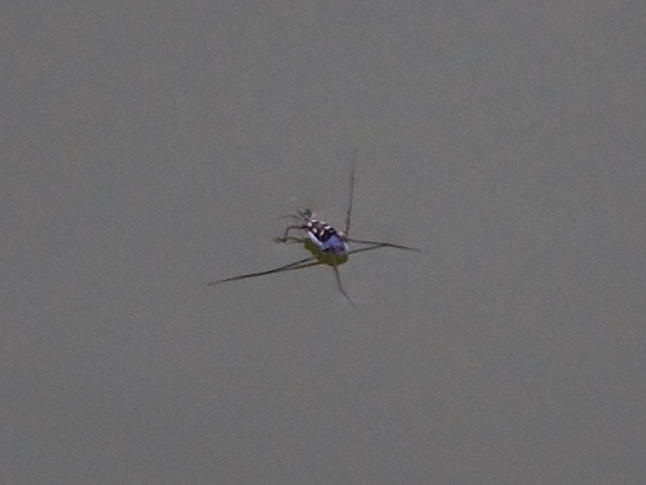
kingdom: Animalia
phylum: Arthropoda
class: Insecta
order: Hemiptera
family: Gerridae
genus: Trepobates
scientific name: Trepobates subnitidus
